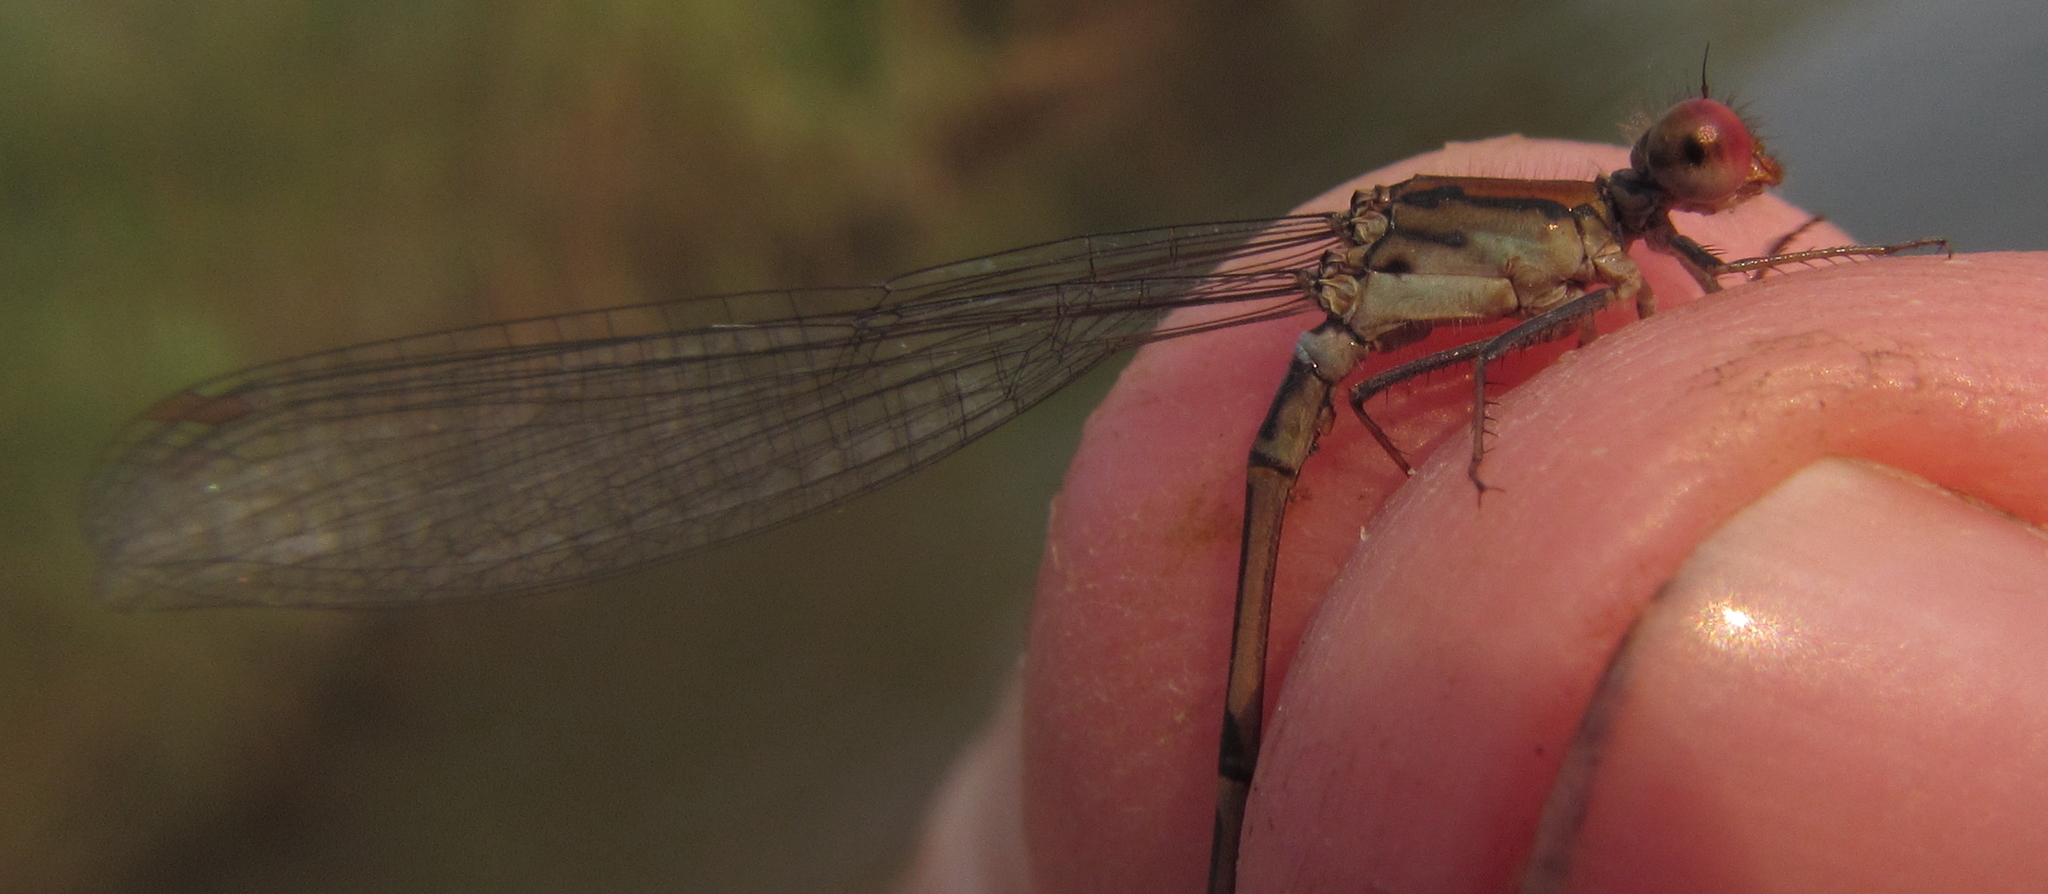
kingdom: Animalia
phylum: Arthropoda
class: Insecta
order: Odonata
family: Coenagrionidae
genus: Pseudagrion
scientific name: Pseudagrion sjoestedti
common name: Variable sprite
